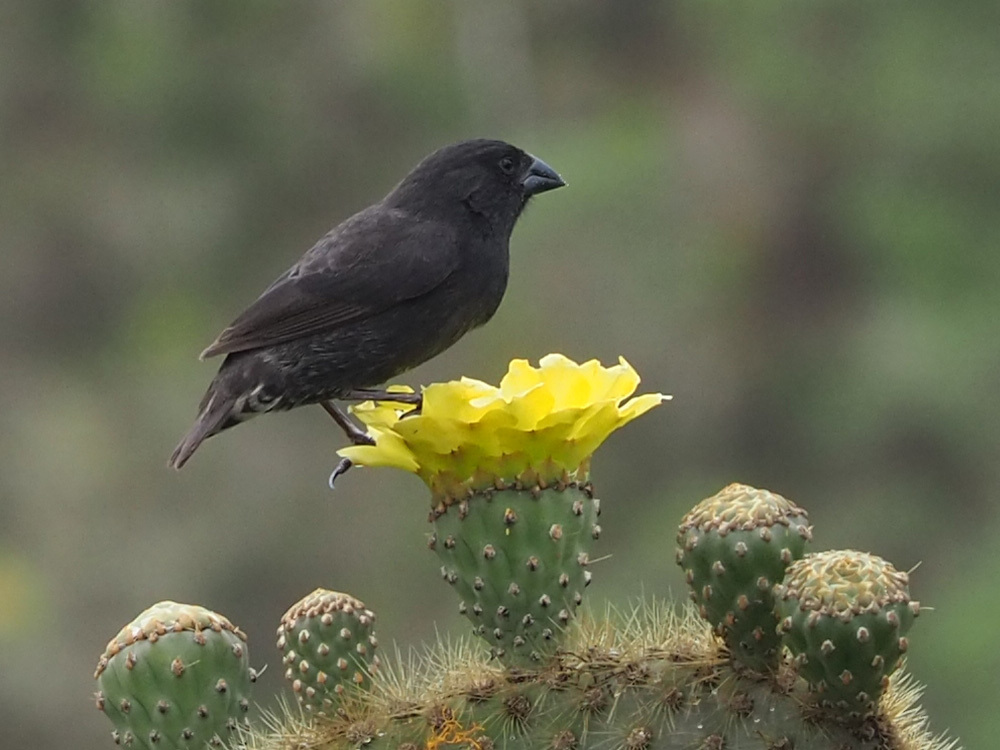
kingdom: Animalia
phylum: Chordata
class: Aves
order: Passeriformes
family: Thraupidae
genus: Geospiza
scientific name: Geospiza scandens
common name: Common cactus-finch
